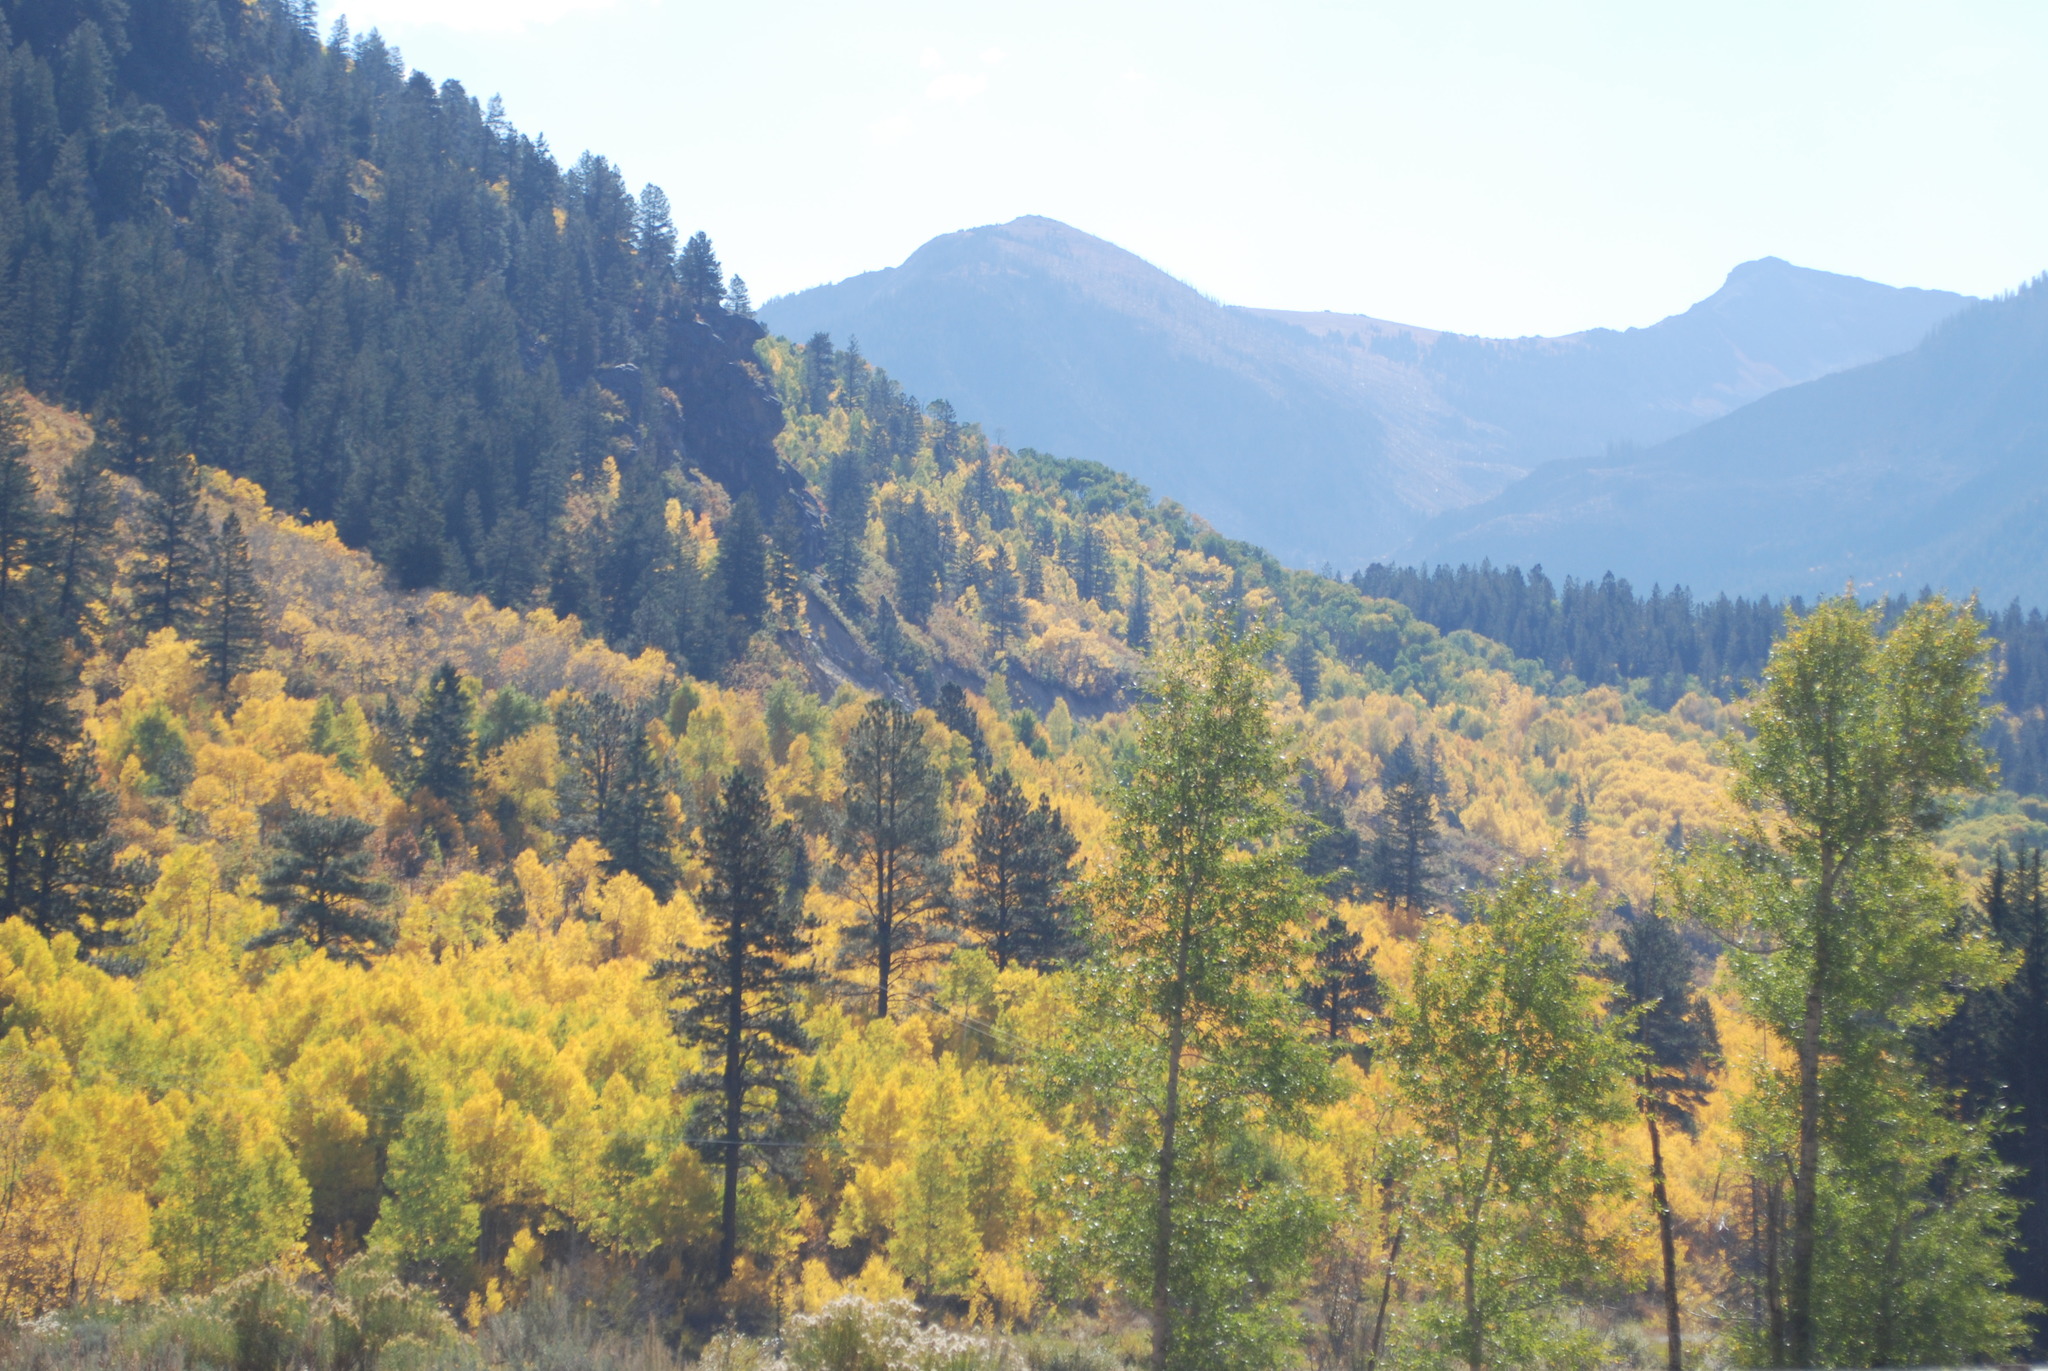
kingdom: Plantae
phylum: Tracheophyta
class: Magnoliopsida
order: Malpighiales
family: Salicaceae
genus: Populus
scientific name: Populus tremuloides
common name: Quaking aspen
